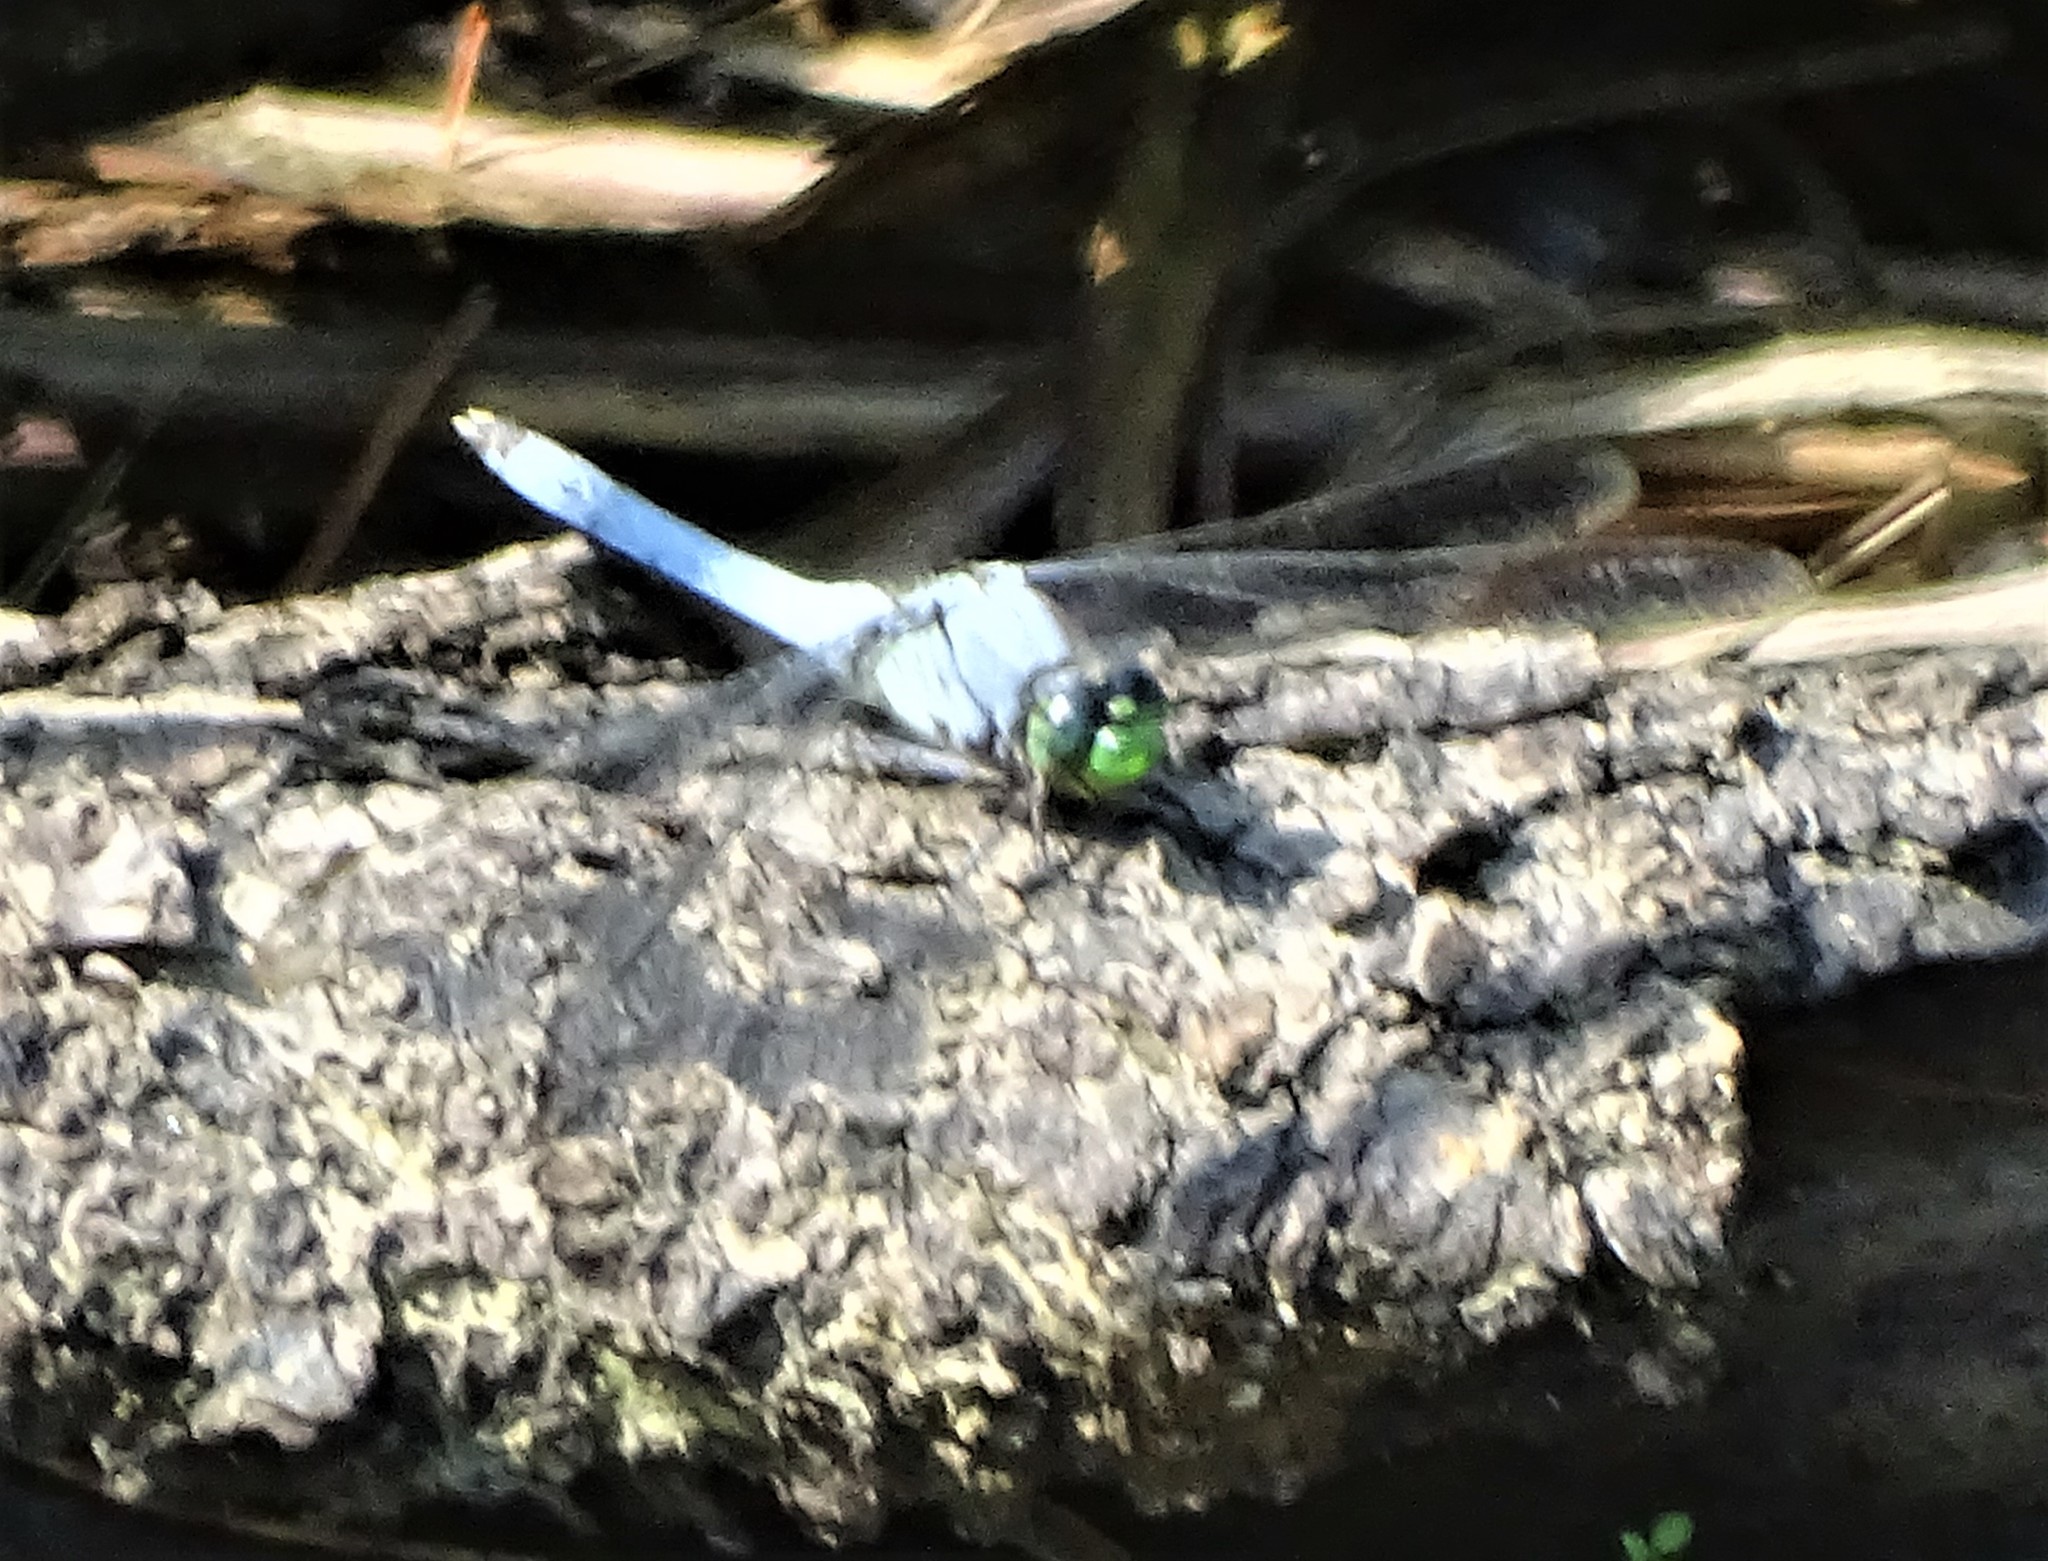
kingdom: Animalia
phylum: Arthropoda
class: Insecta
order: Odonata
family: Libellulidae
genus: Erythemis
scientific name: Erythemis simplicicollis
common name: Eastern pondhawk
